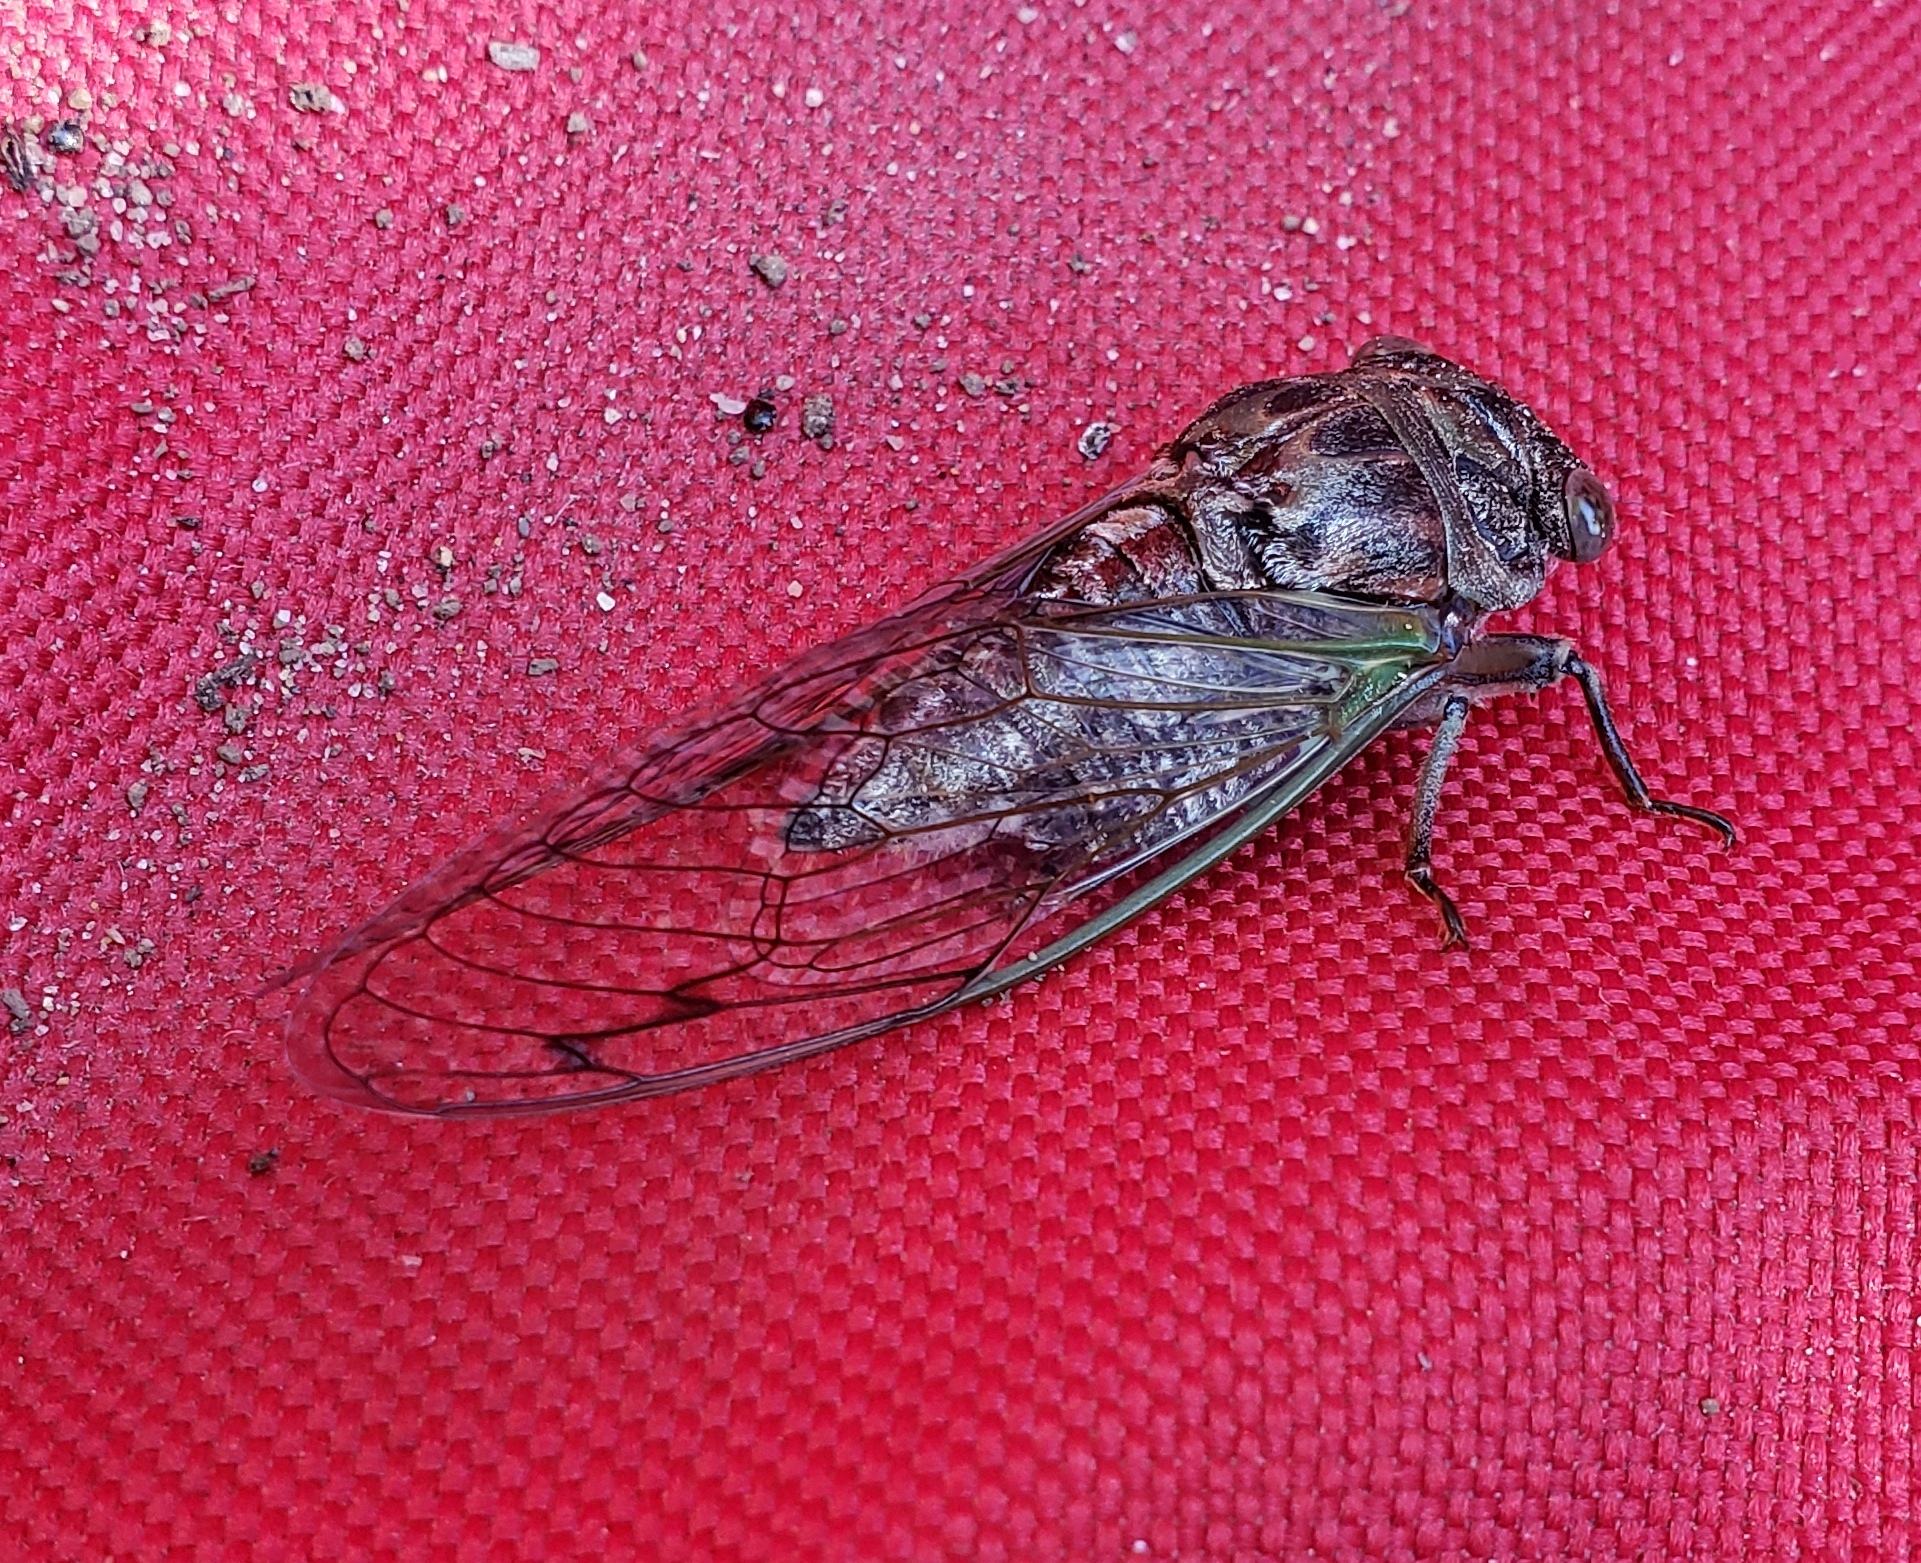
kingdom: Animalia
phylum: Arthropoda
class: Insecta
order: Hemiptera
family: Cicadidae
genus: Neotibicen
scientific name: Neotibicen canicularis
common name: God-day cicada
